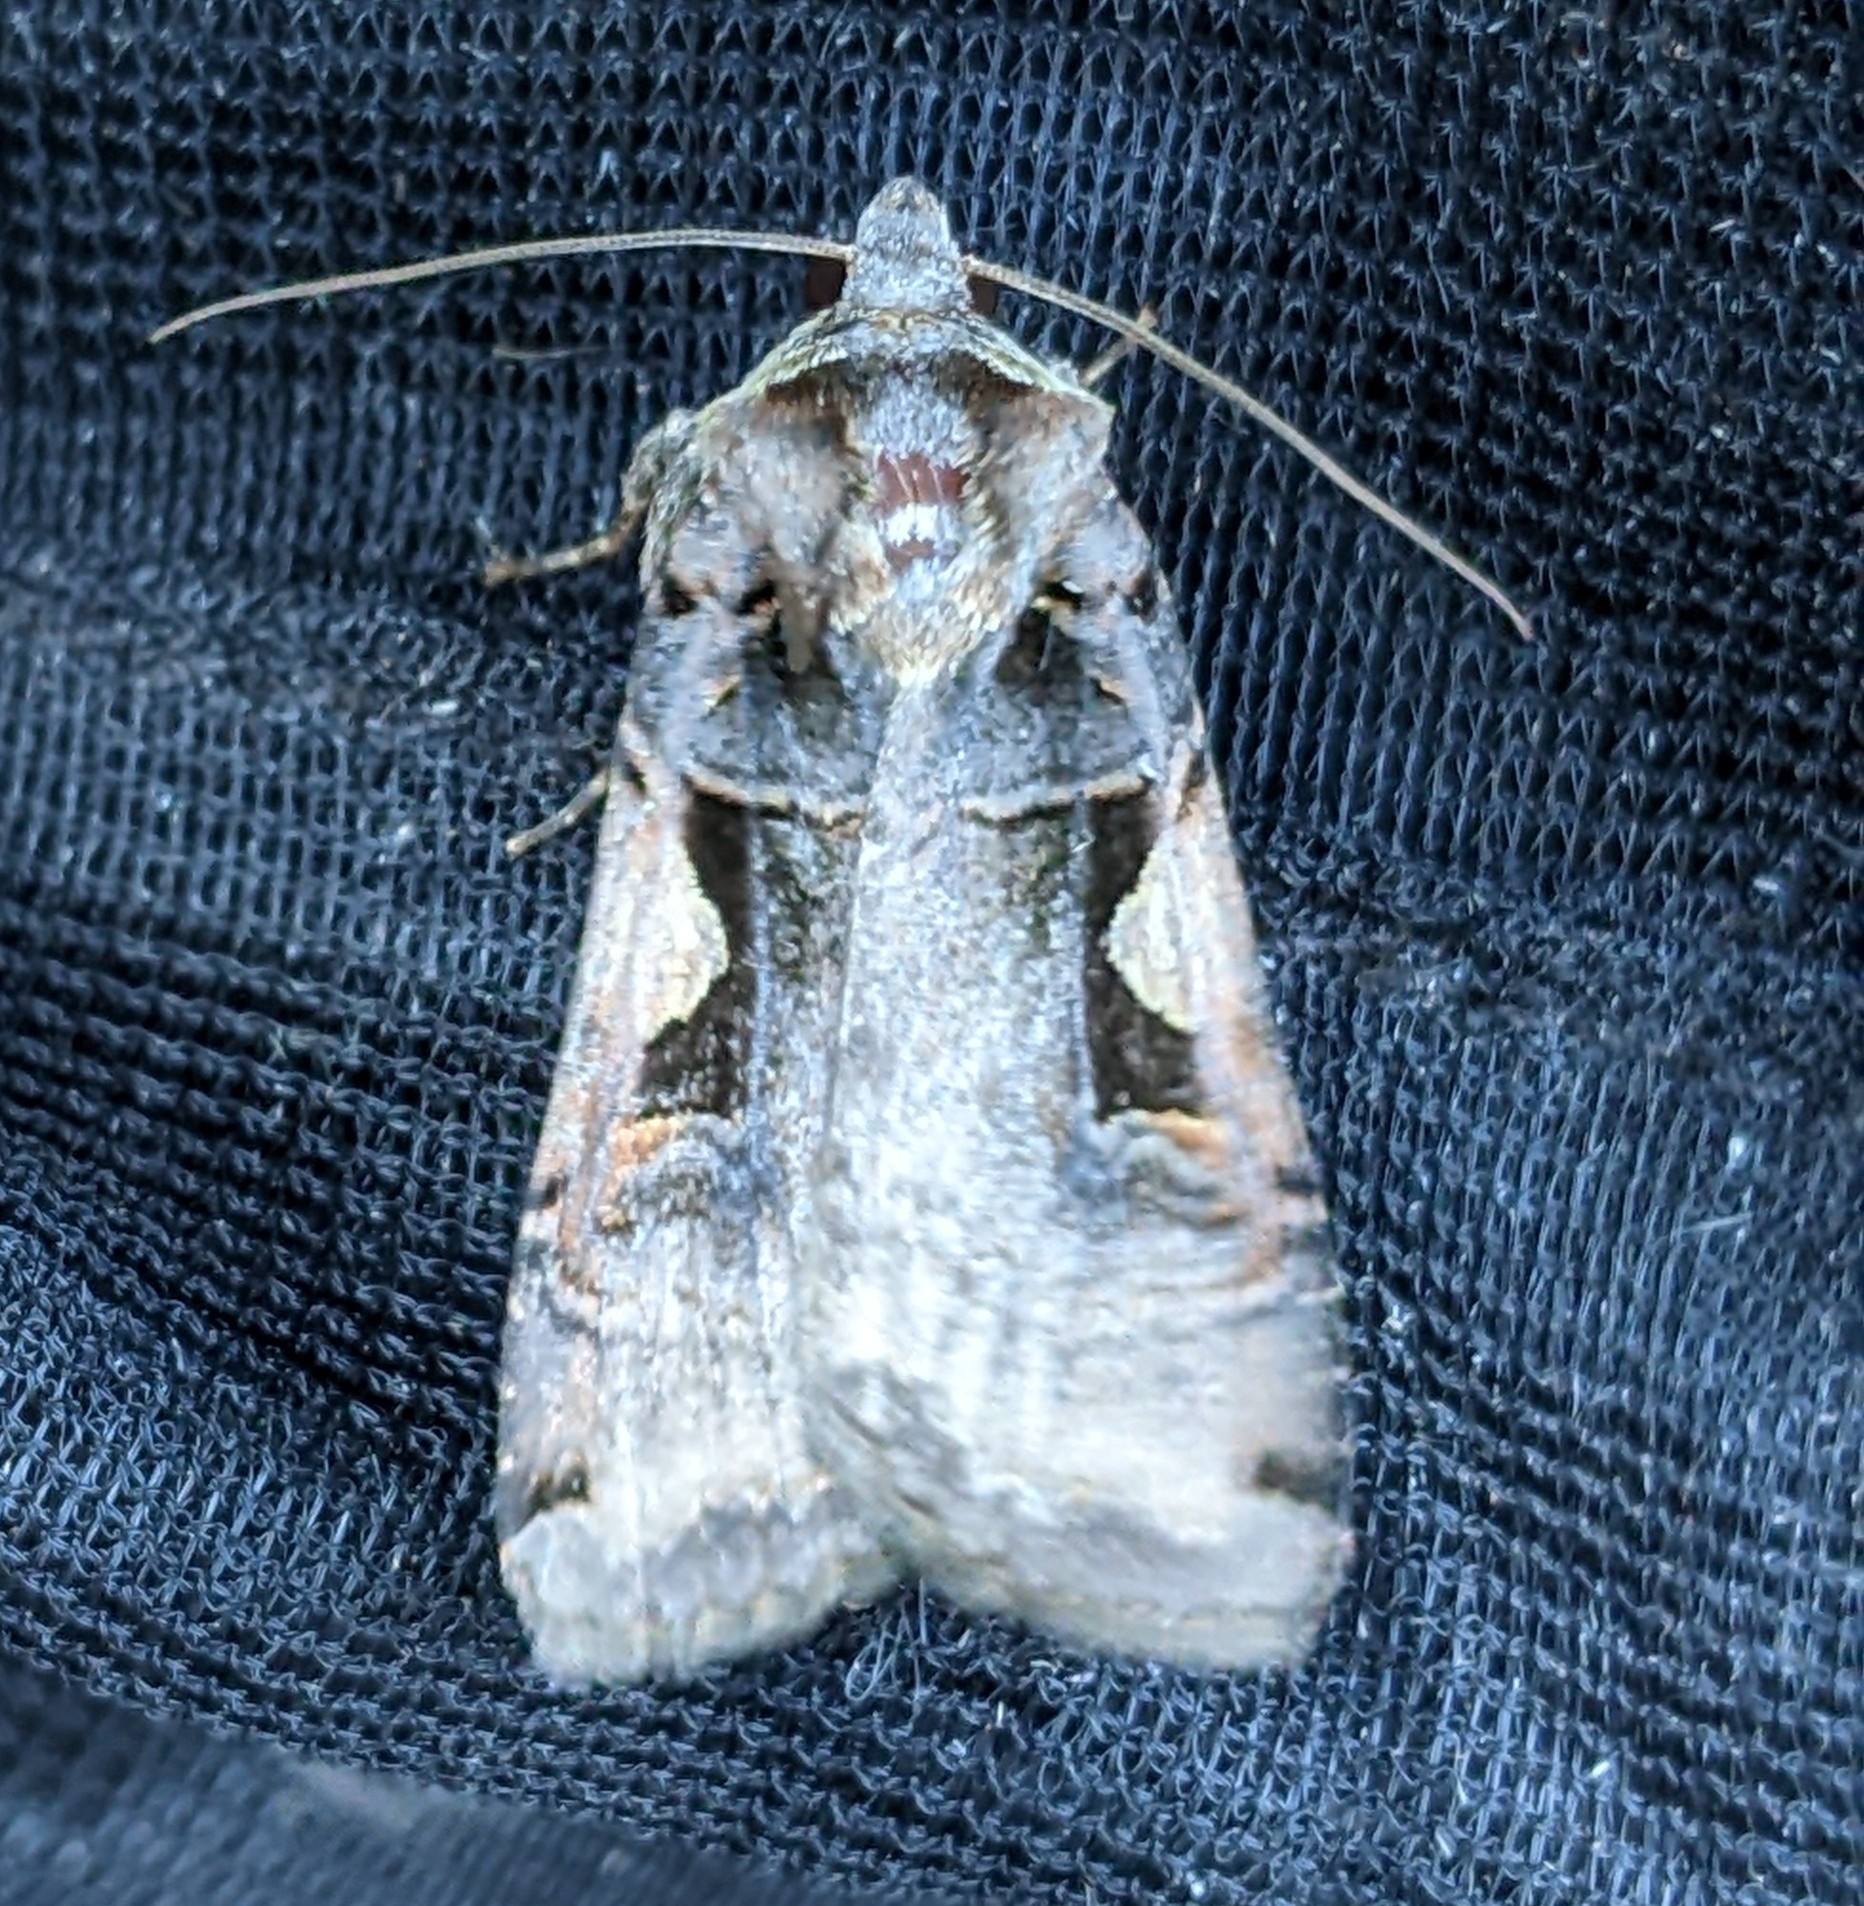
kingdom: Animalia
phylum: Arthropoda
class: Insecta
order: Lepidoptera
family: Noctuidae
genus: Xestia
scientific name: Xestia c-nigrum
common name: Setaceous hebrew character
